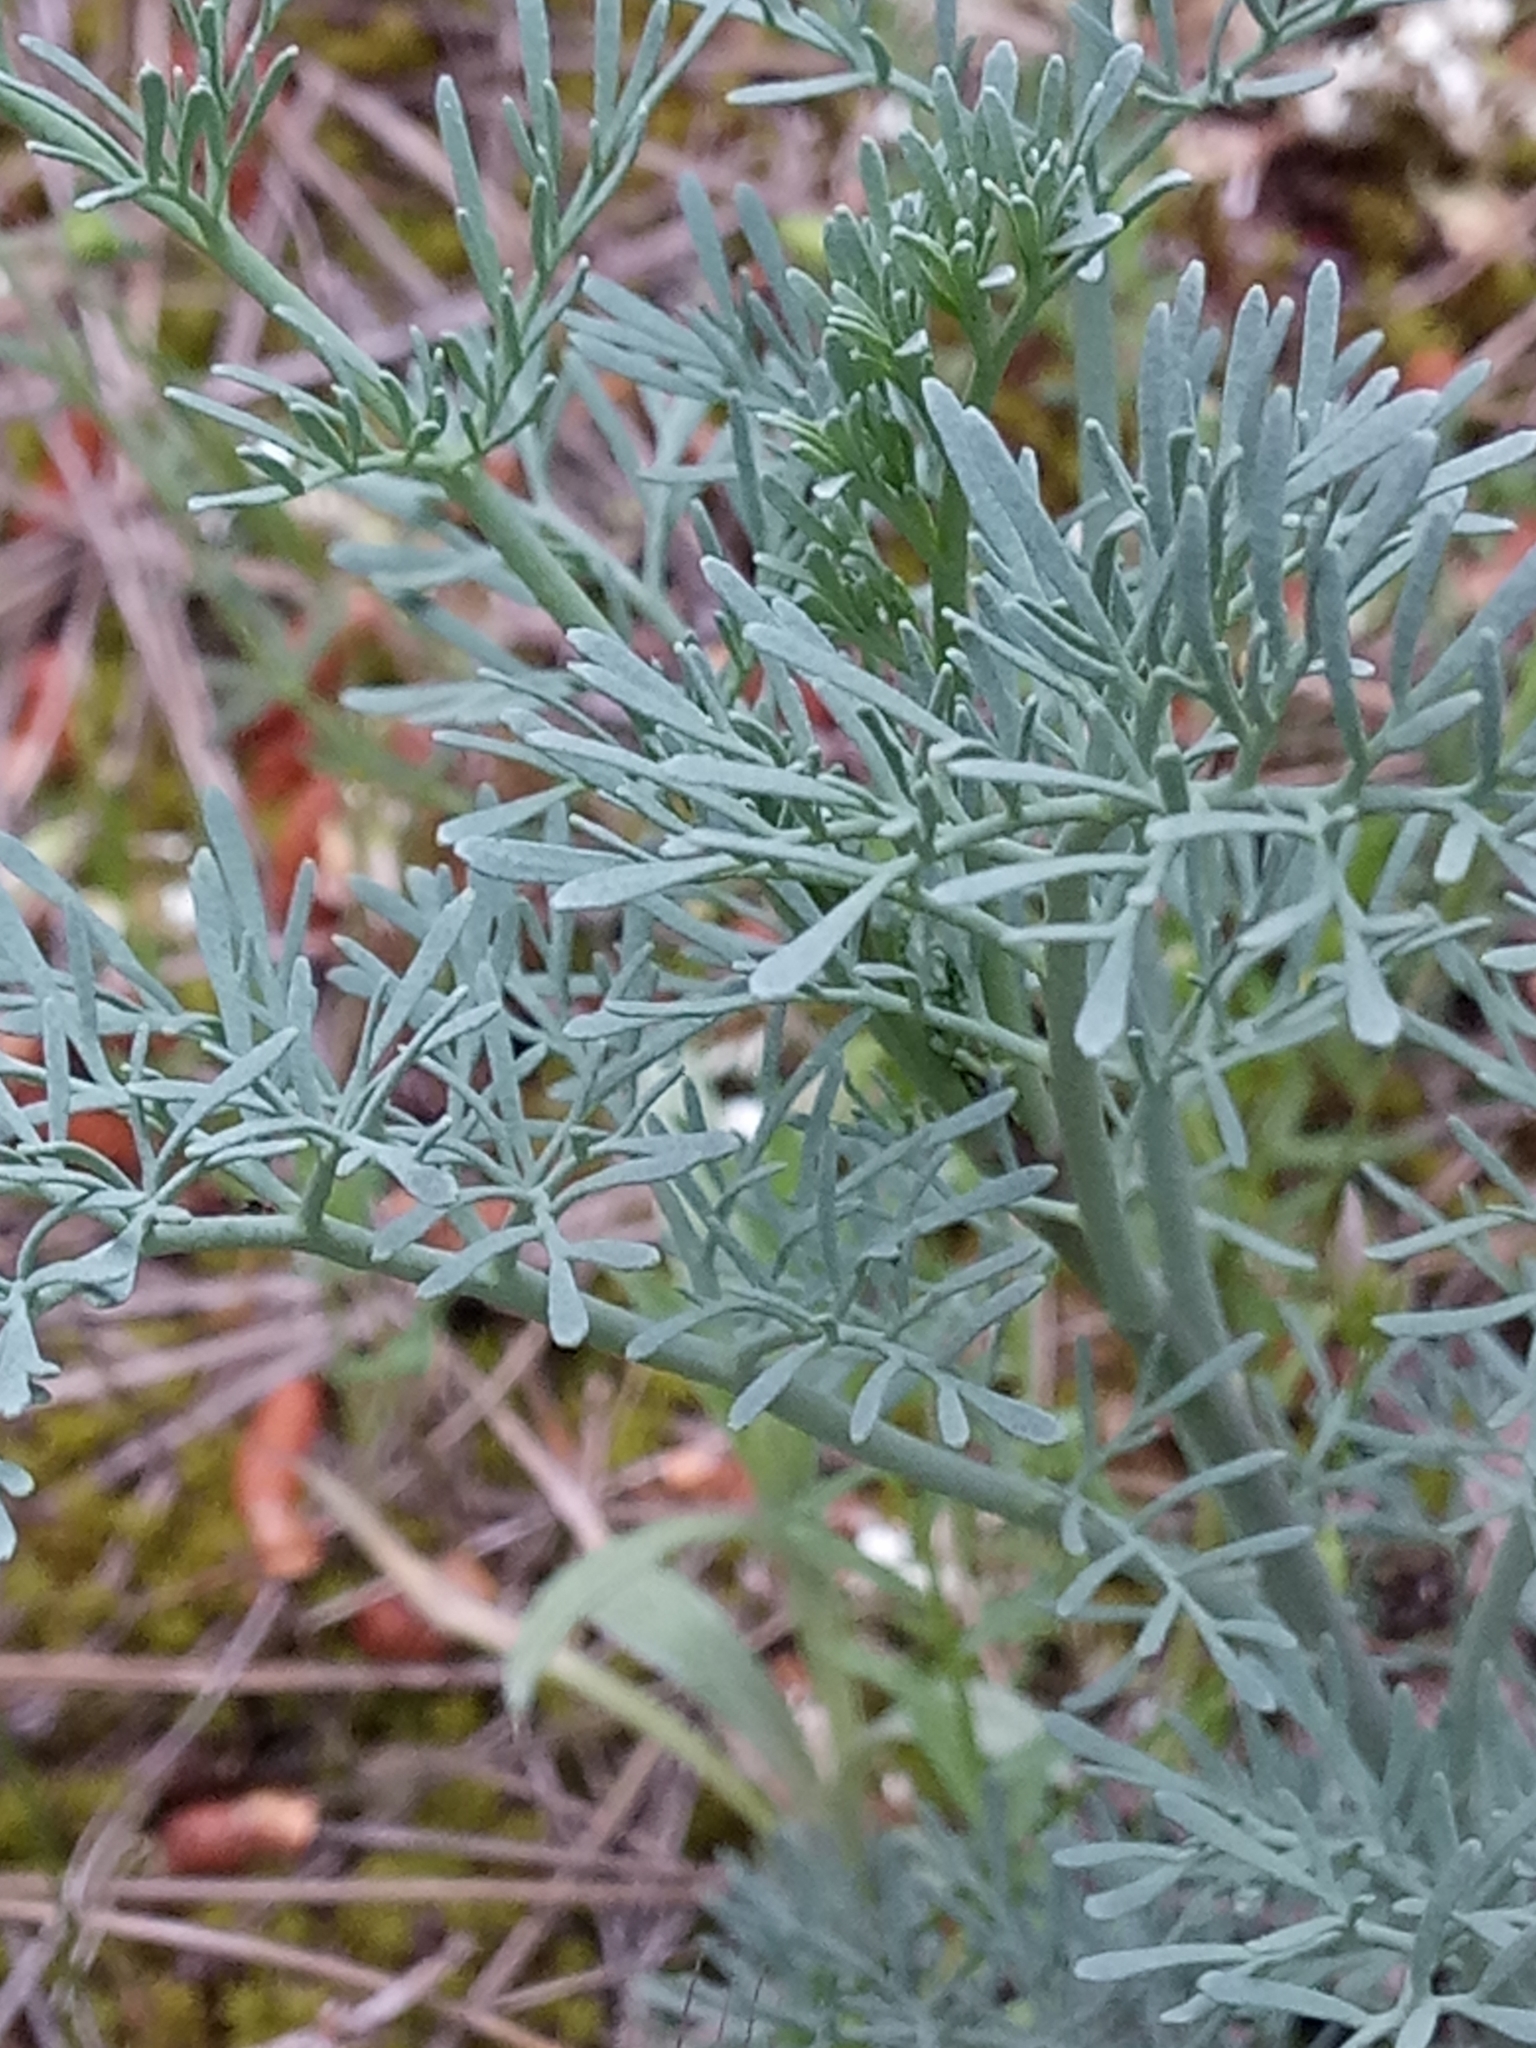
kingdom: Plantae
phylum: Tracheophyta
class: Magnoliopsida
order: Sapindales
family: Rutaceae
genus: Ruta
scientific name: Ruta montana
